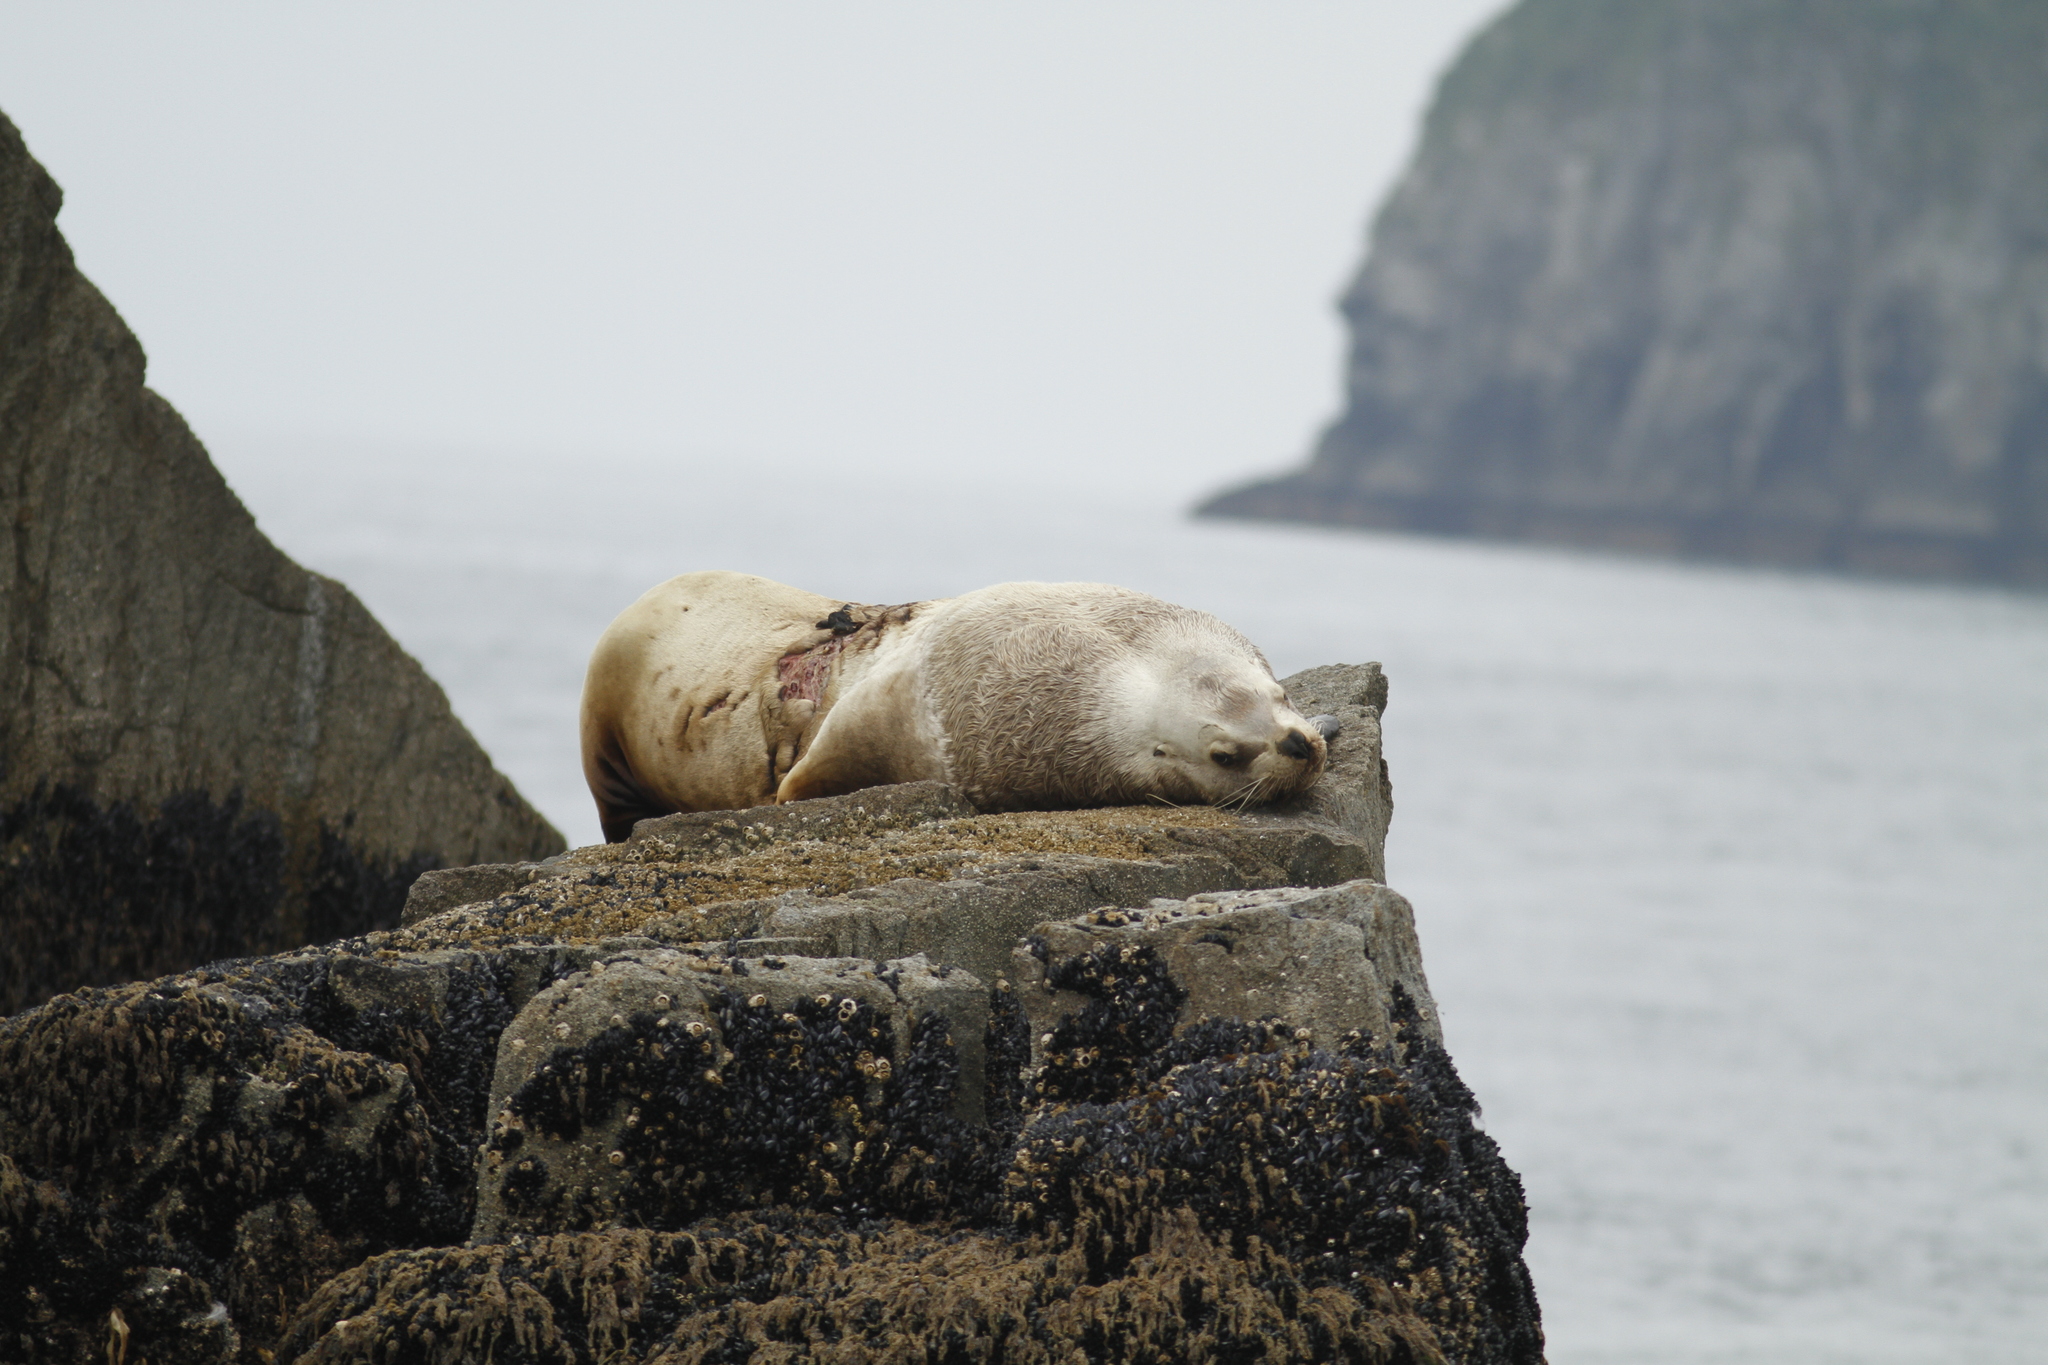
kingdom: Animalia
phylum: Chordata
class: Mammalia
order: Carnivora
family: Otariidae
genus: Eumetopias
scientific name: Eumetopias jubatus
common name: Steller sea lion
